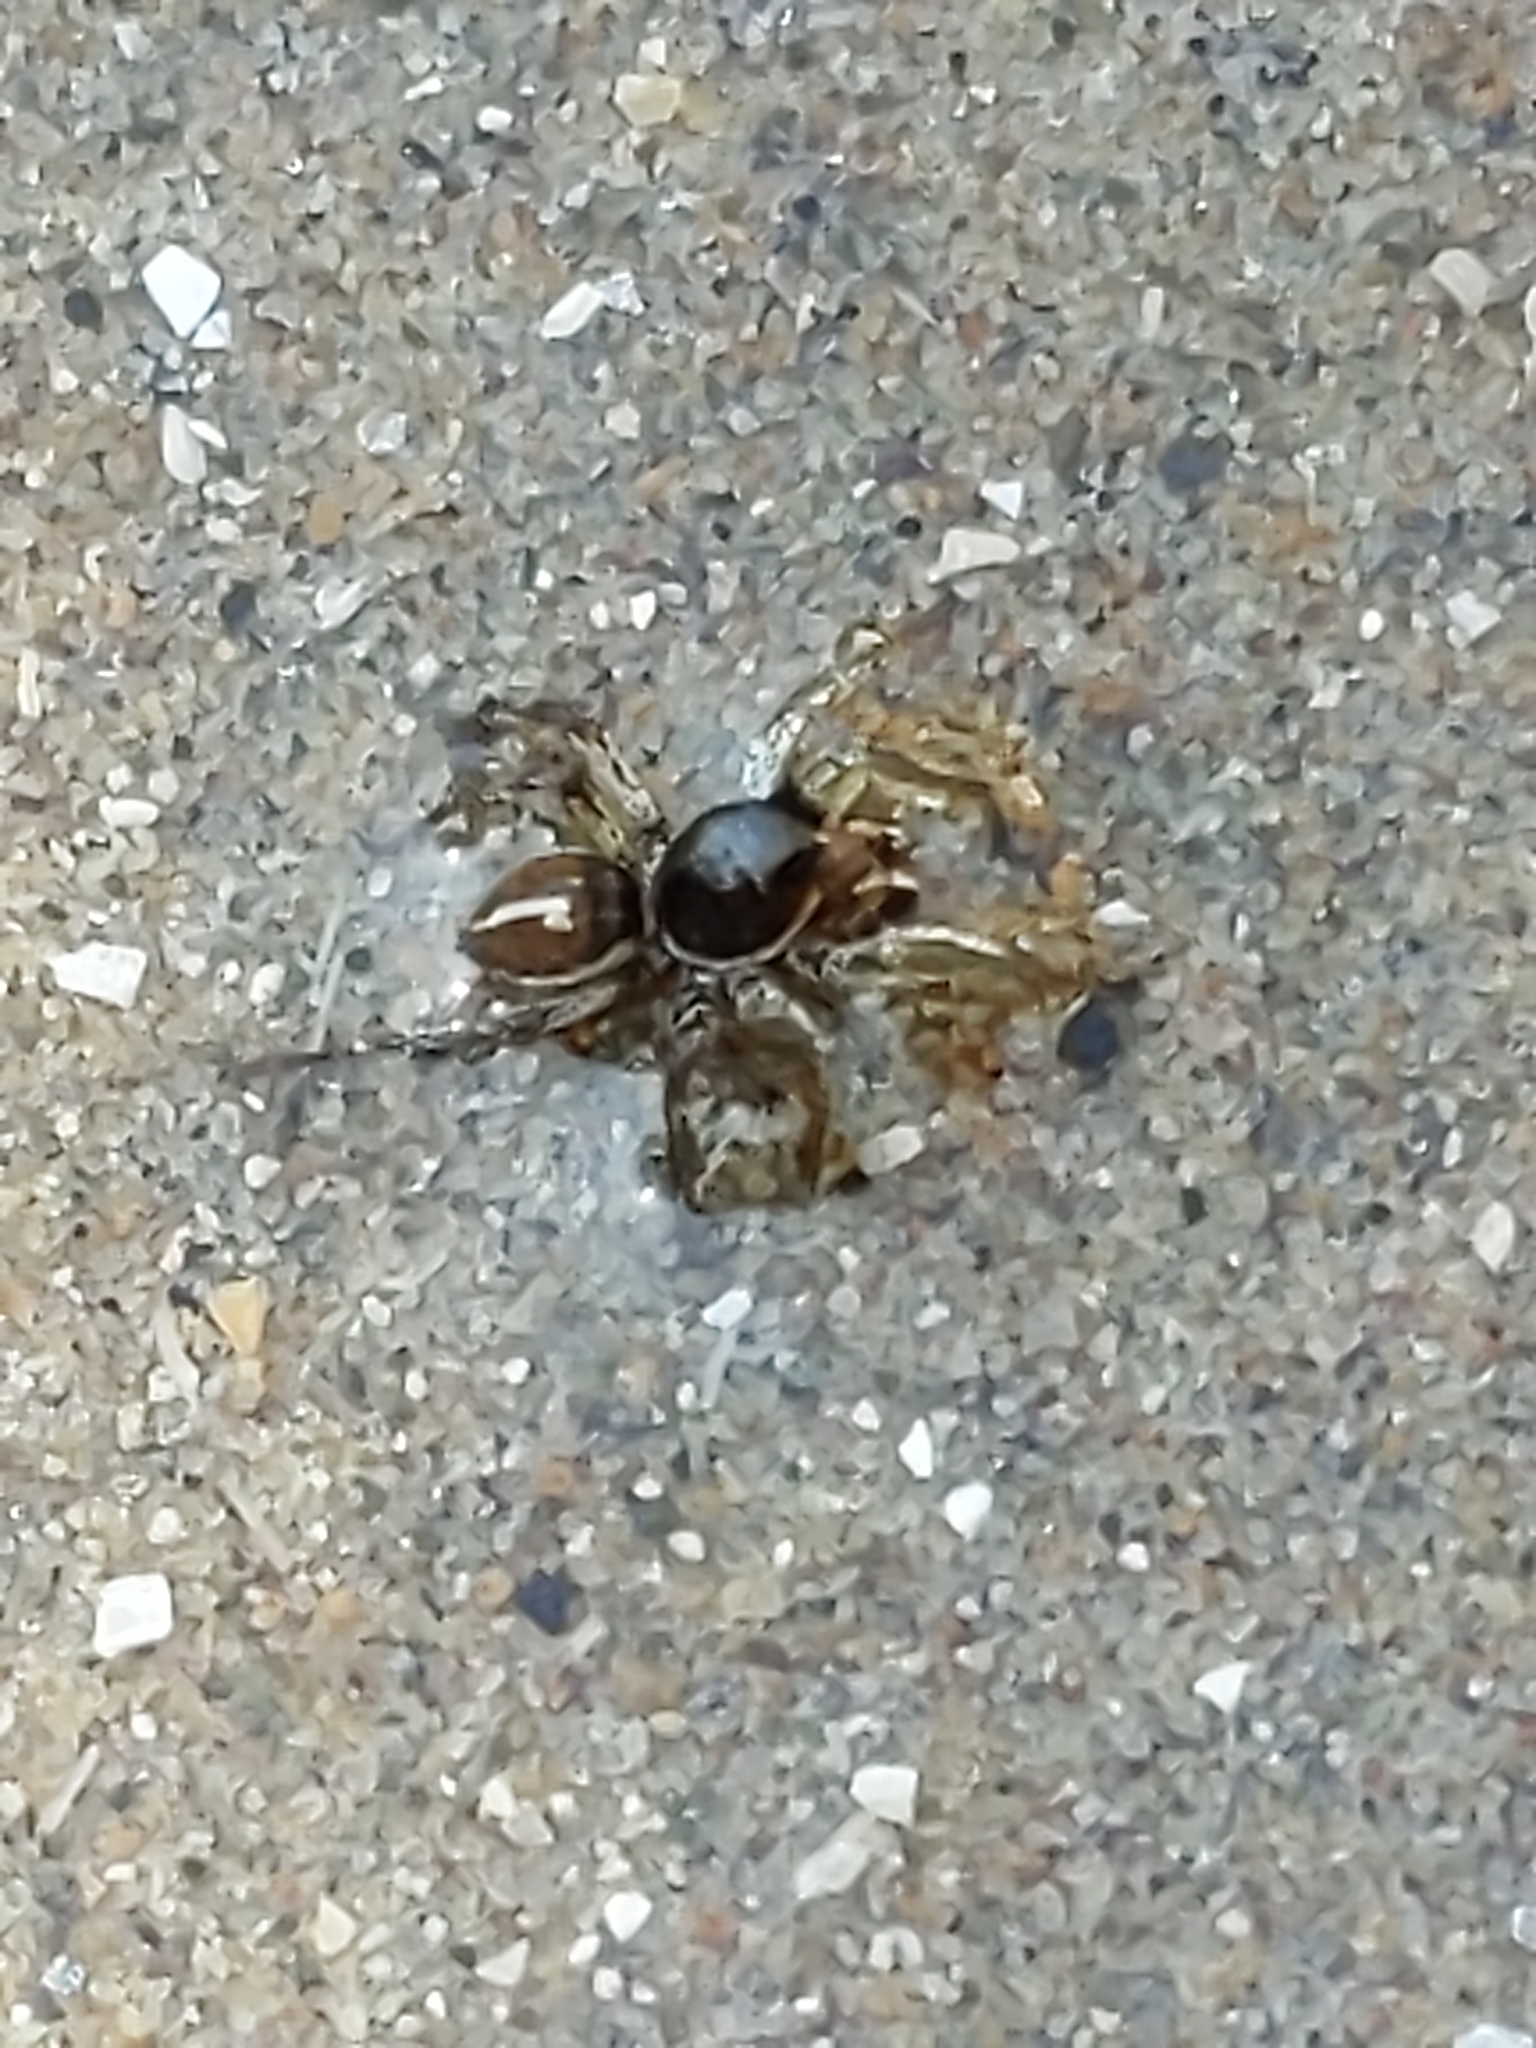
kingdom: Animalia
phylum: Arthropoda
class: Arachnida
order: Araneae
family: Salticidae
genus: Habronattus
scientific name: Habronattus ophrys
